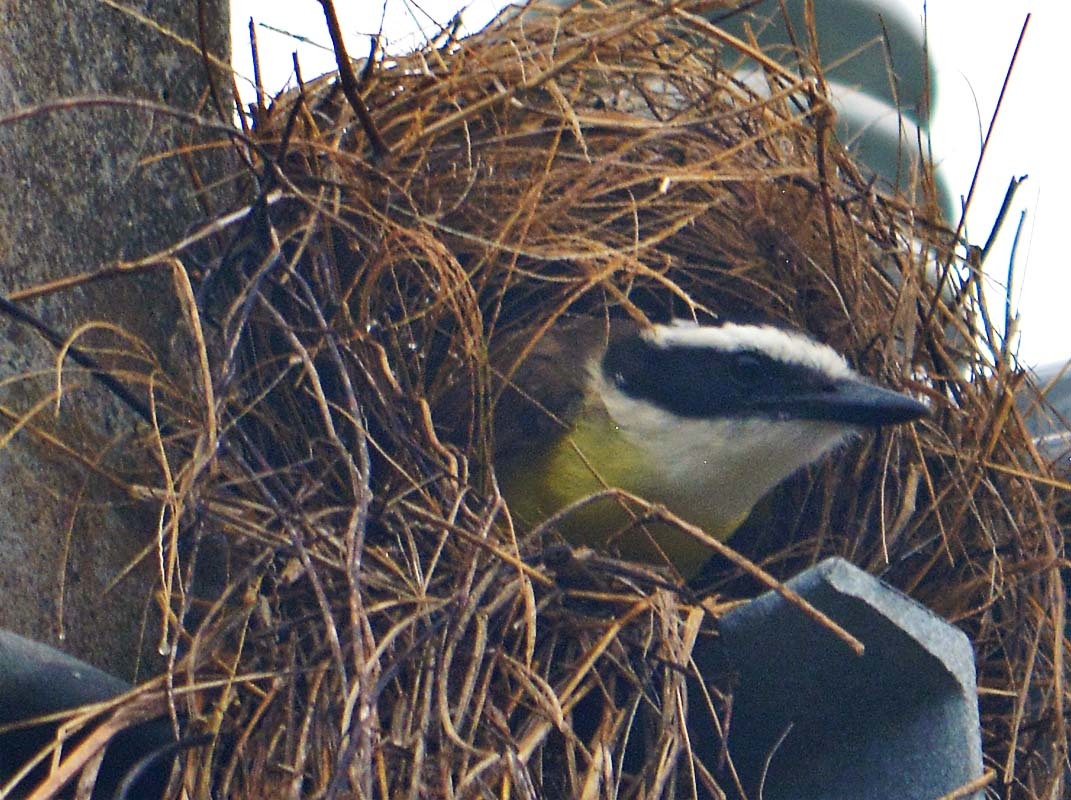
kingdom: Animalia
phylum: Chordata
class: Aves
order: Passeriformes
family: Tyrannidae
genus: Myiozetetes
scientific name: Myiozetetes similis
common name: Social flycatcher
